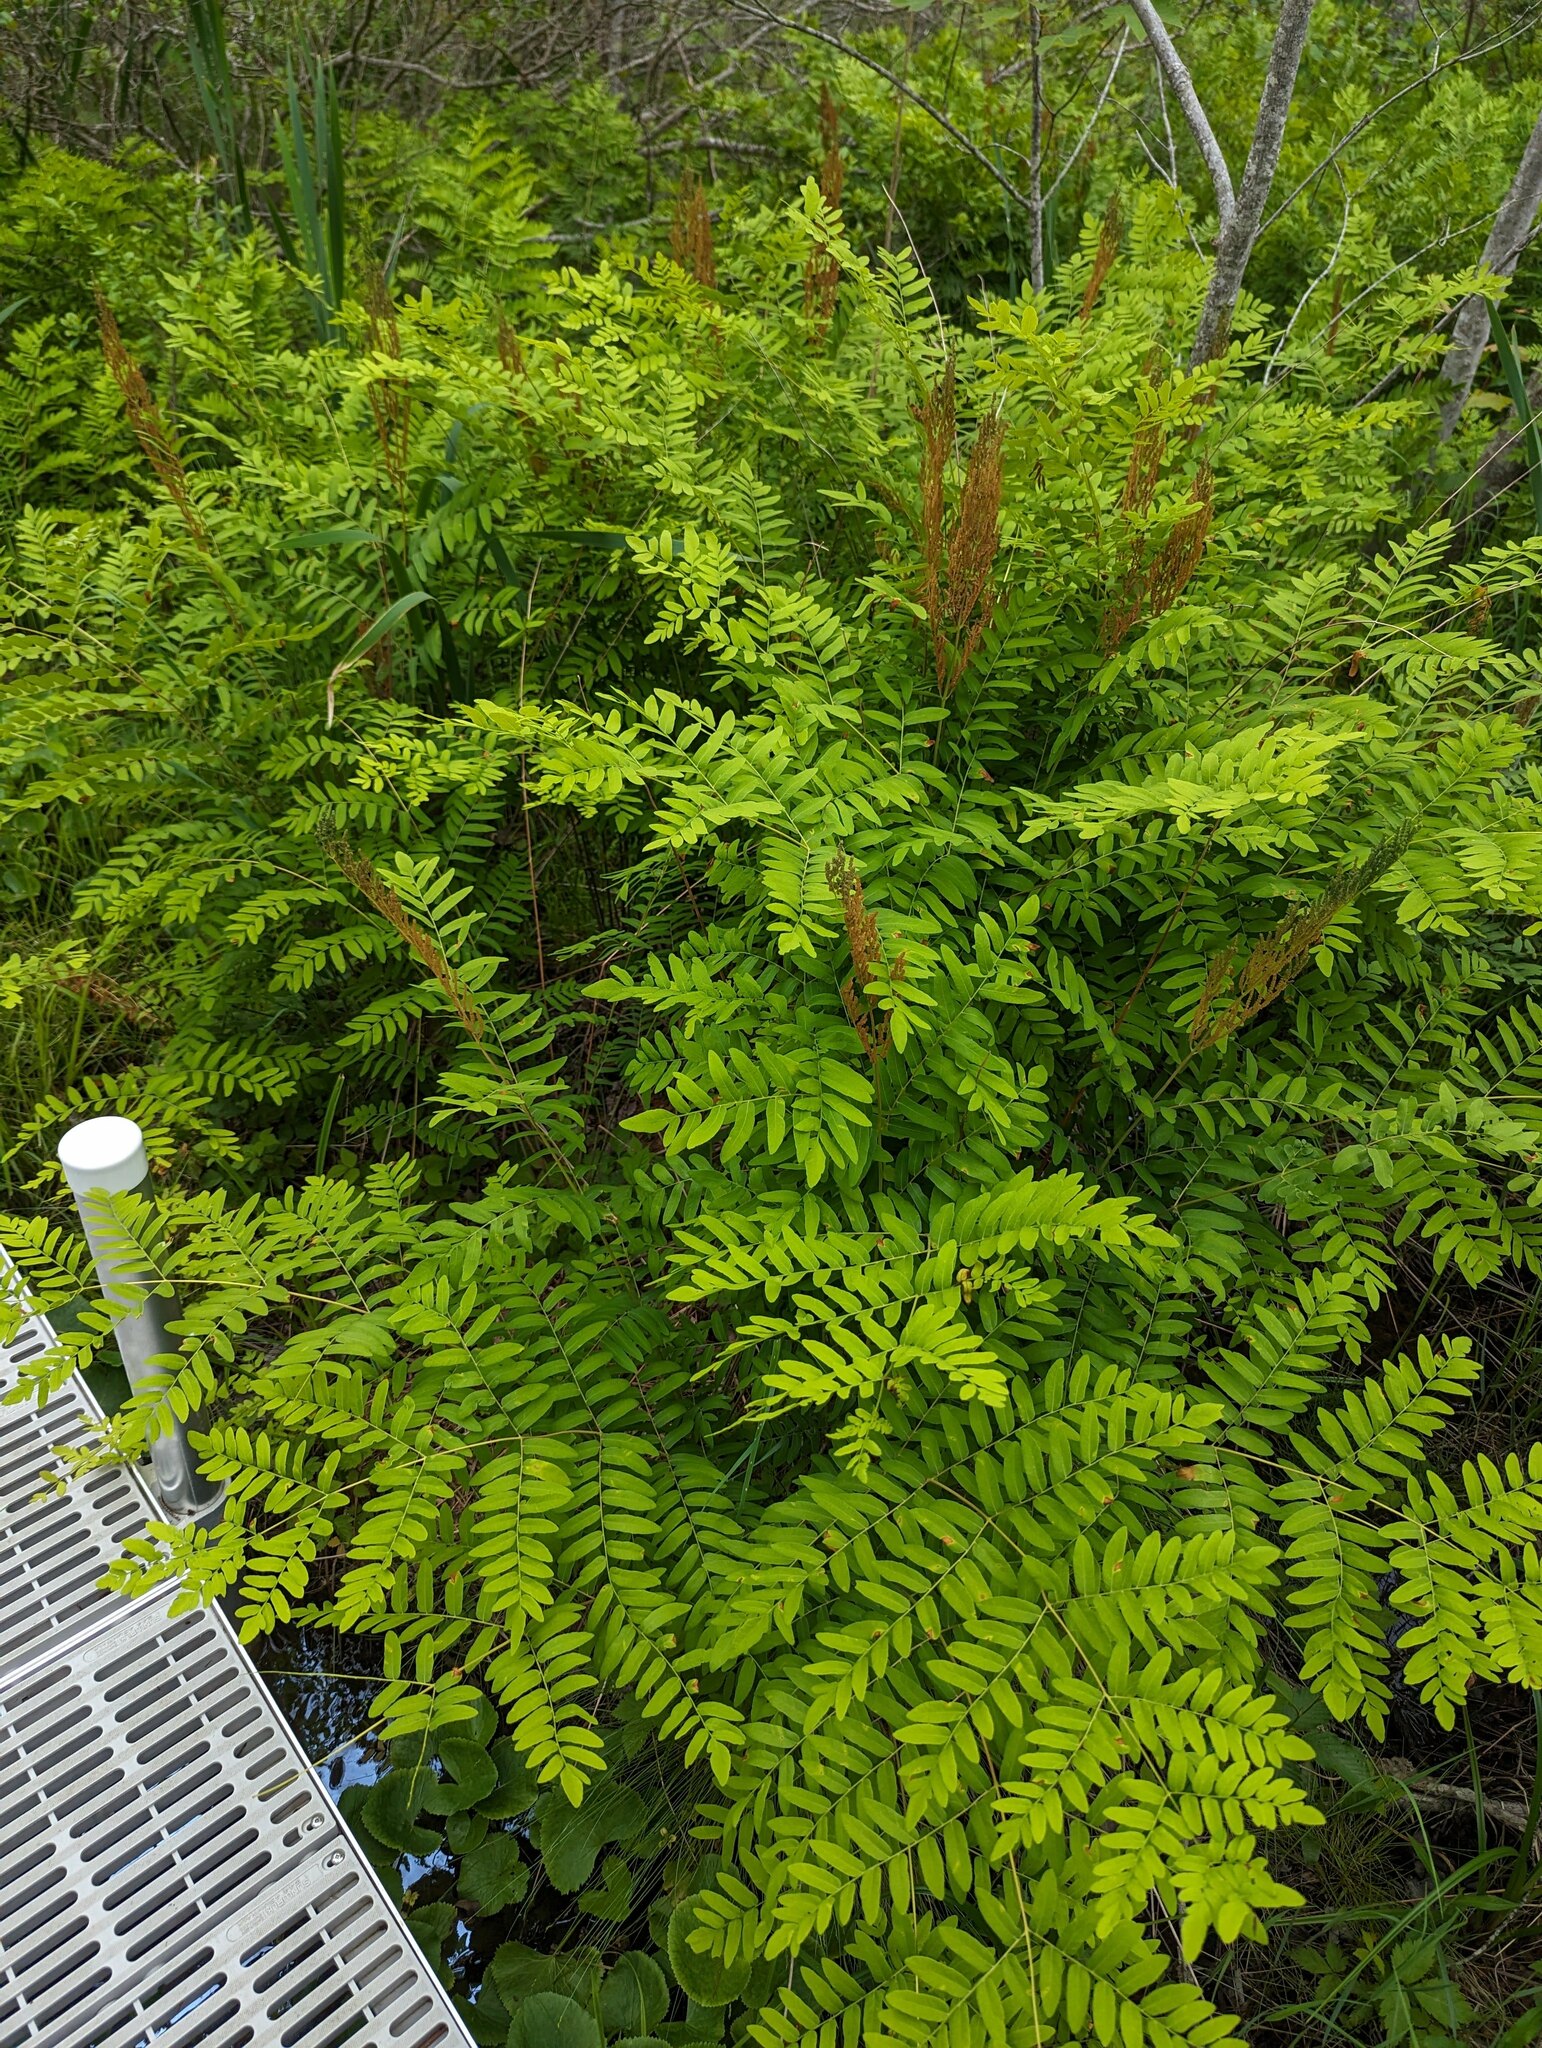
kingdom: Plantae
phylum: Tracheophyta
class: Polypodiopsida
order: Osmundales
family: Osmundaceae
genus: Osmunda
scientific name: Osmunda spectabilis
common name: American royal fern
